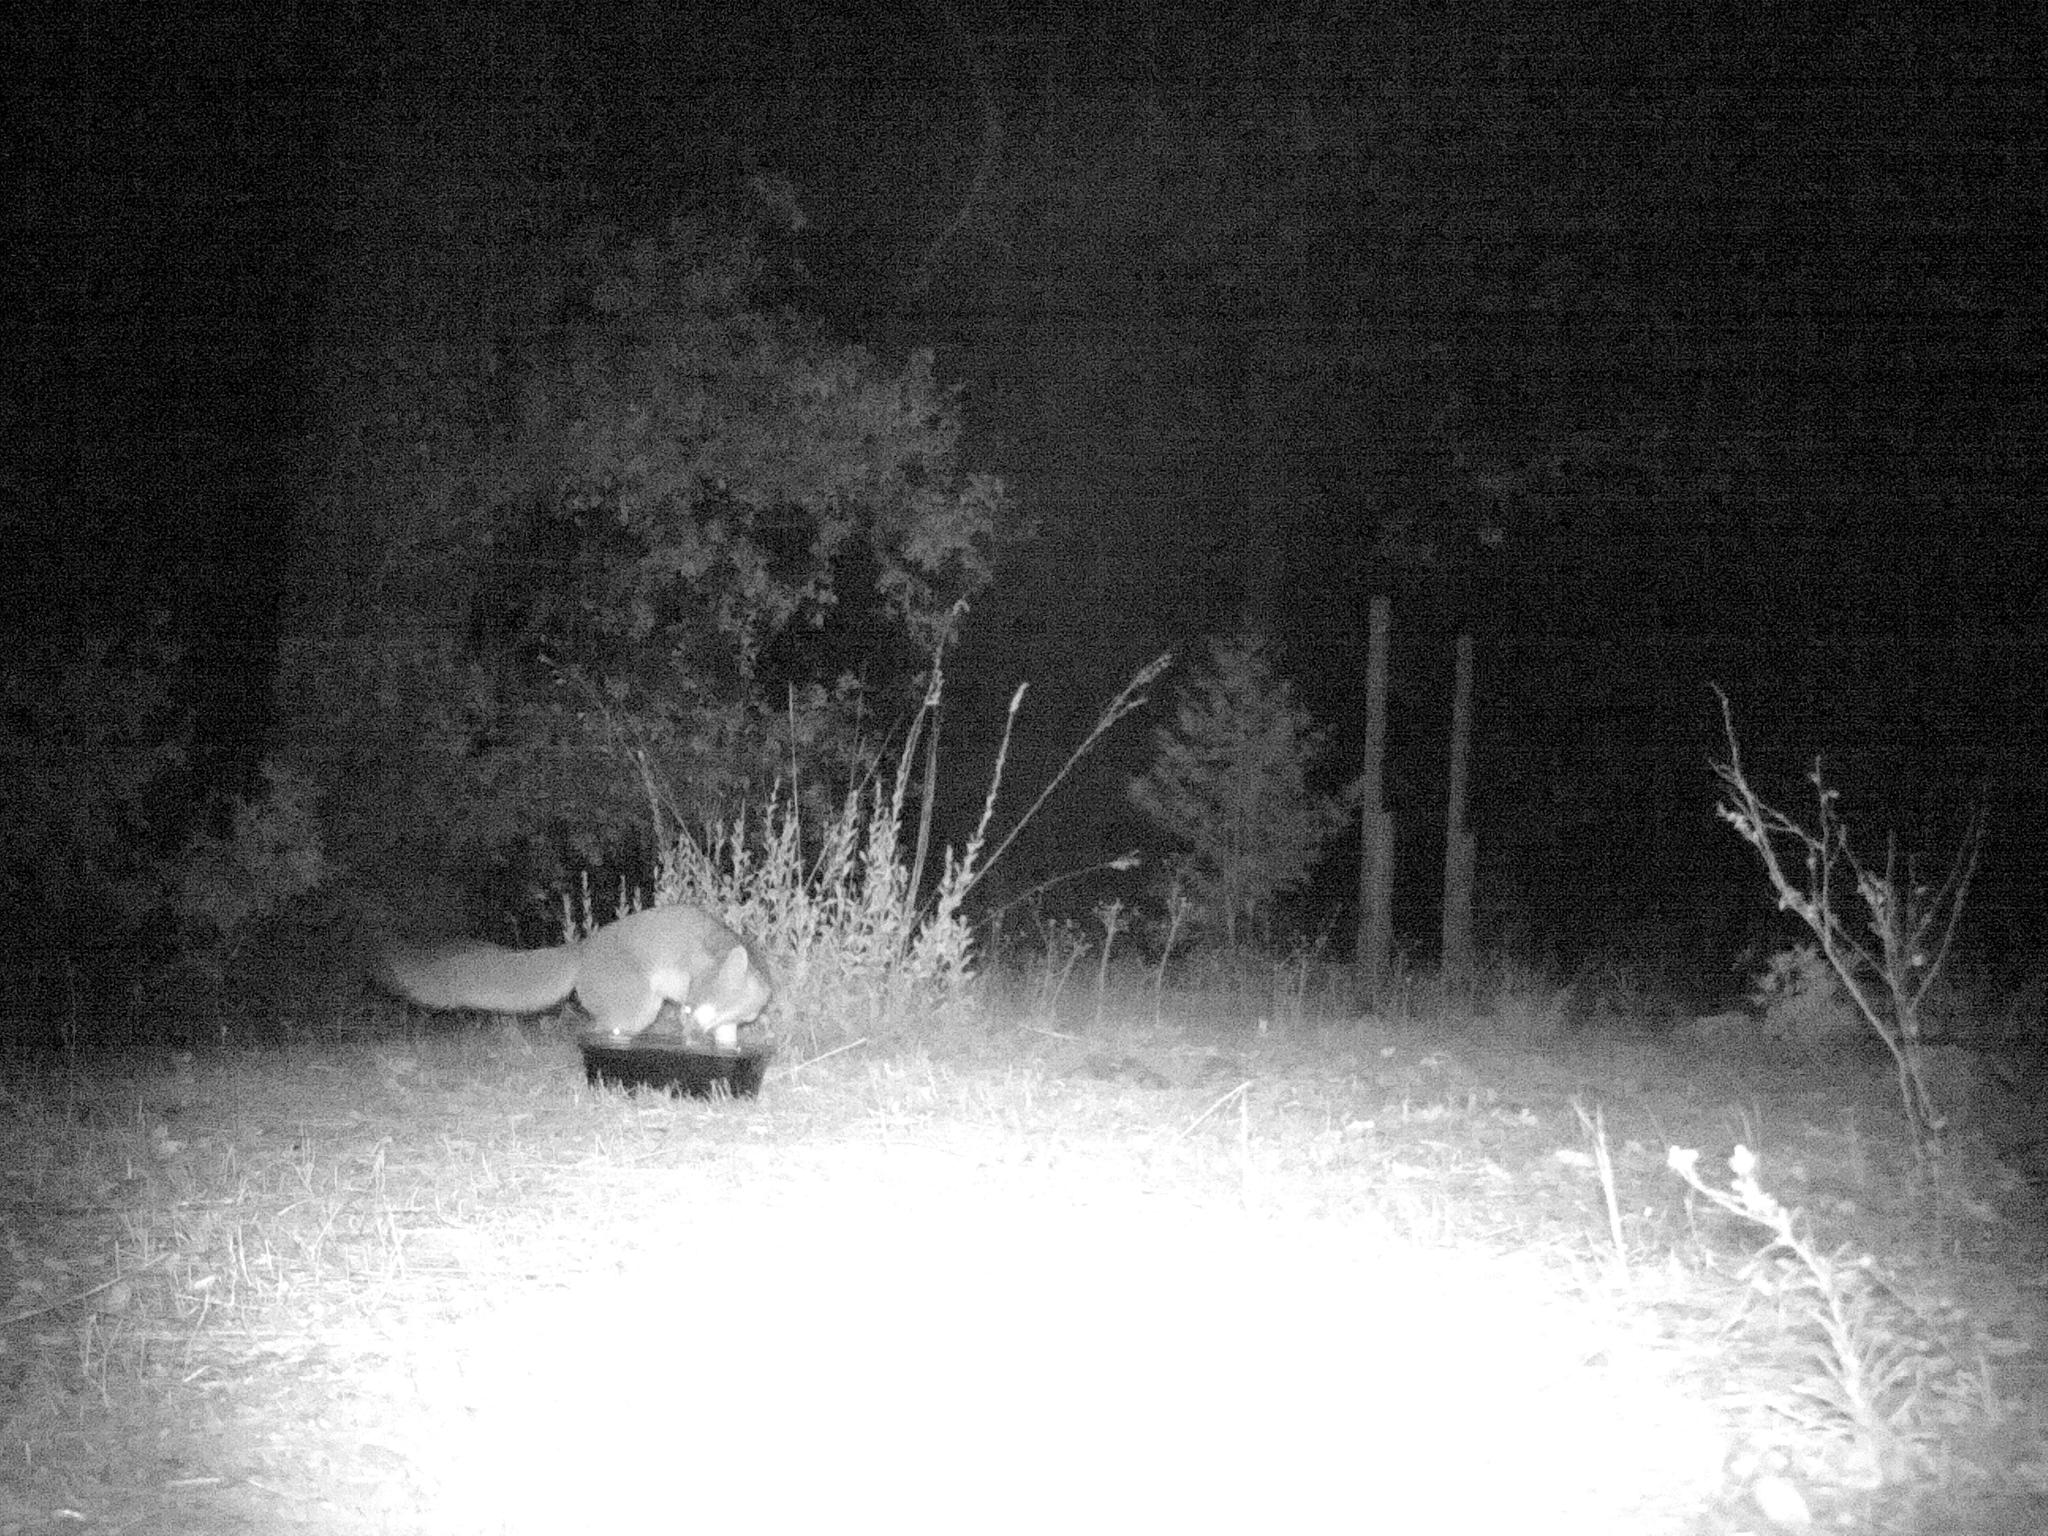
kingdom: Animalia
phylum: Chordata
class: Mammalia
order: Carnivora
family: Canidae
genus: Urocyon
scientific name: Urocyon cinereoargenteus
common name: Gray fox
